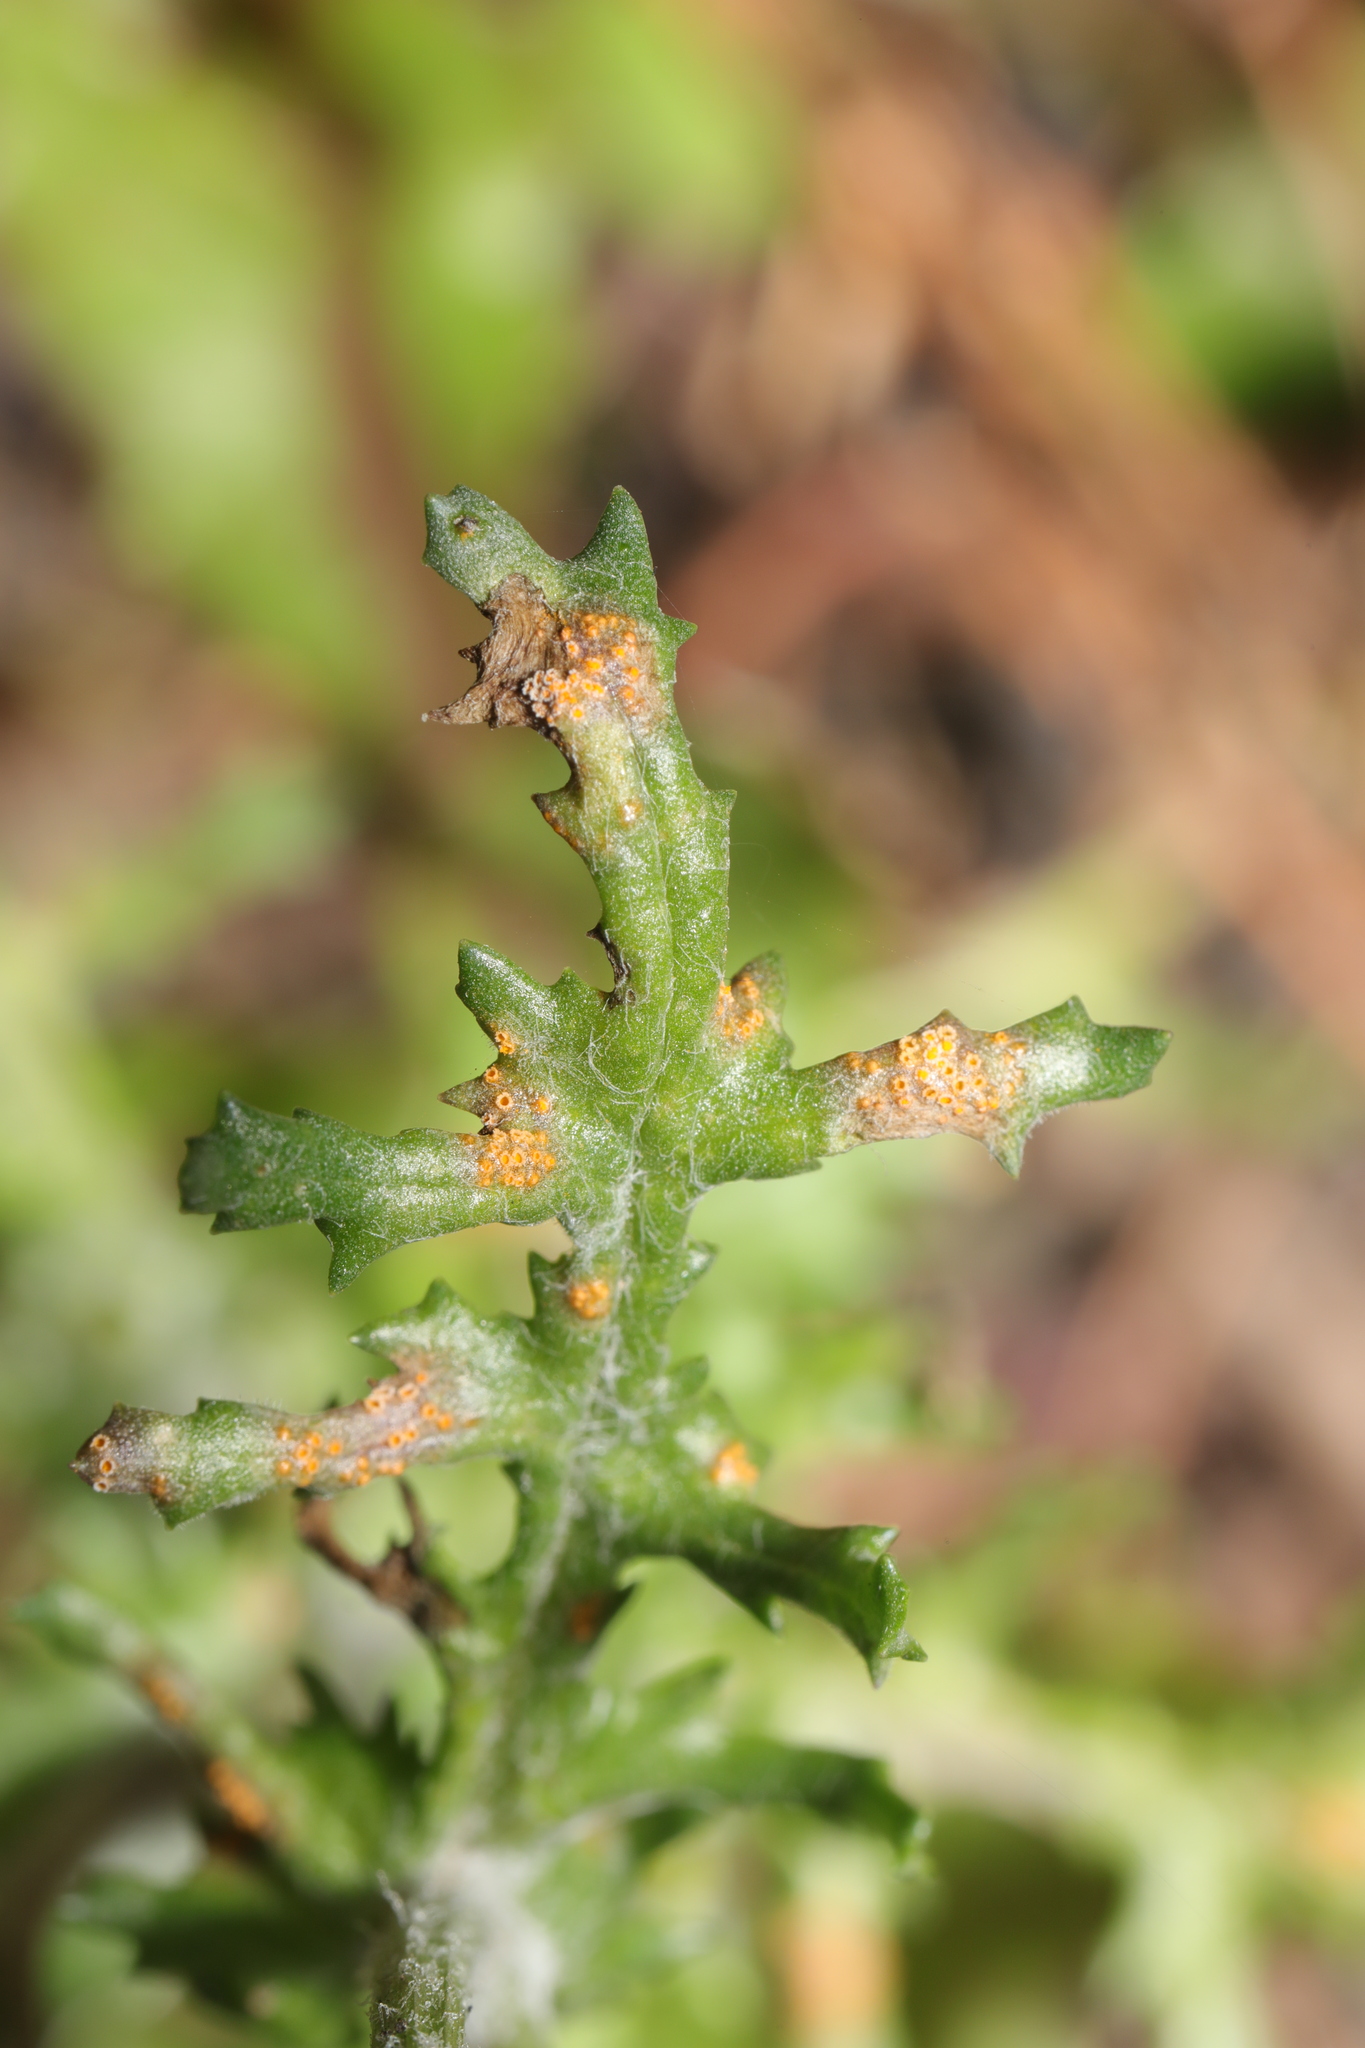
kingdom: Fungi
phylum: Basidiomycota
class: Pucciniomycetes
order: Pucciniales
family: Pucciniaceae
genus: Puccinia
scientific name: Puccinia lagenophorae
